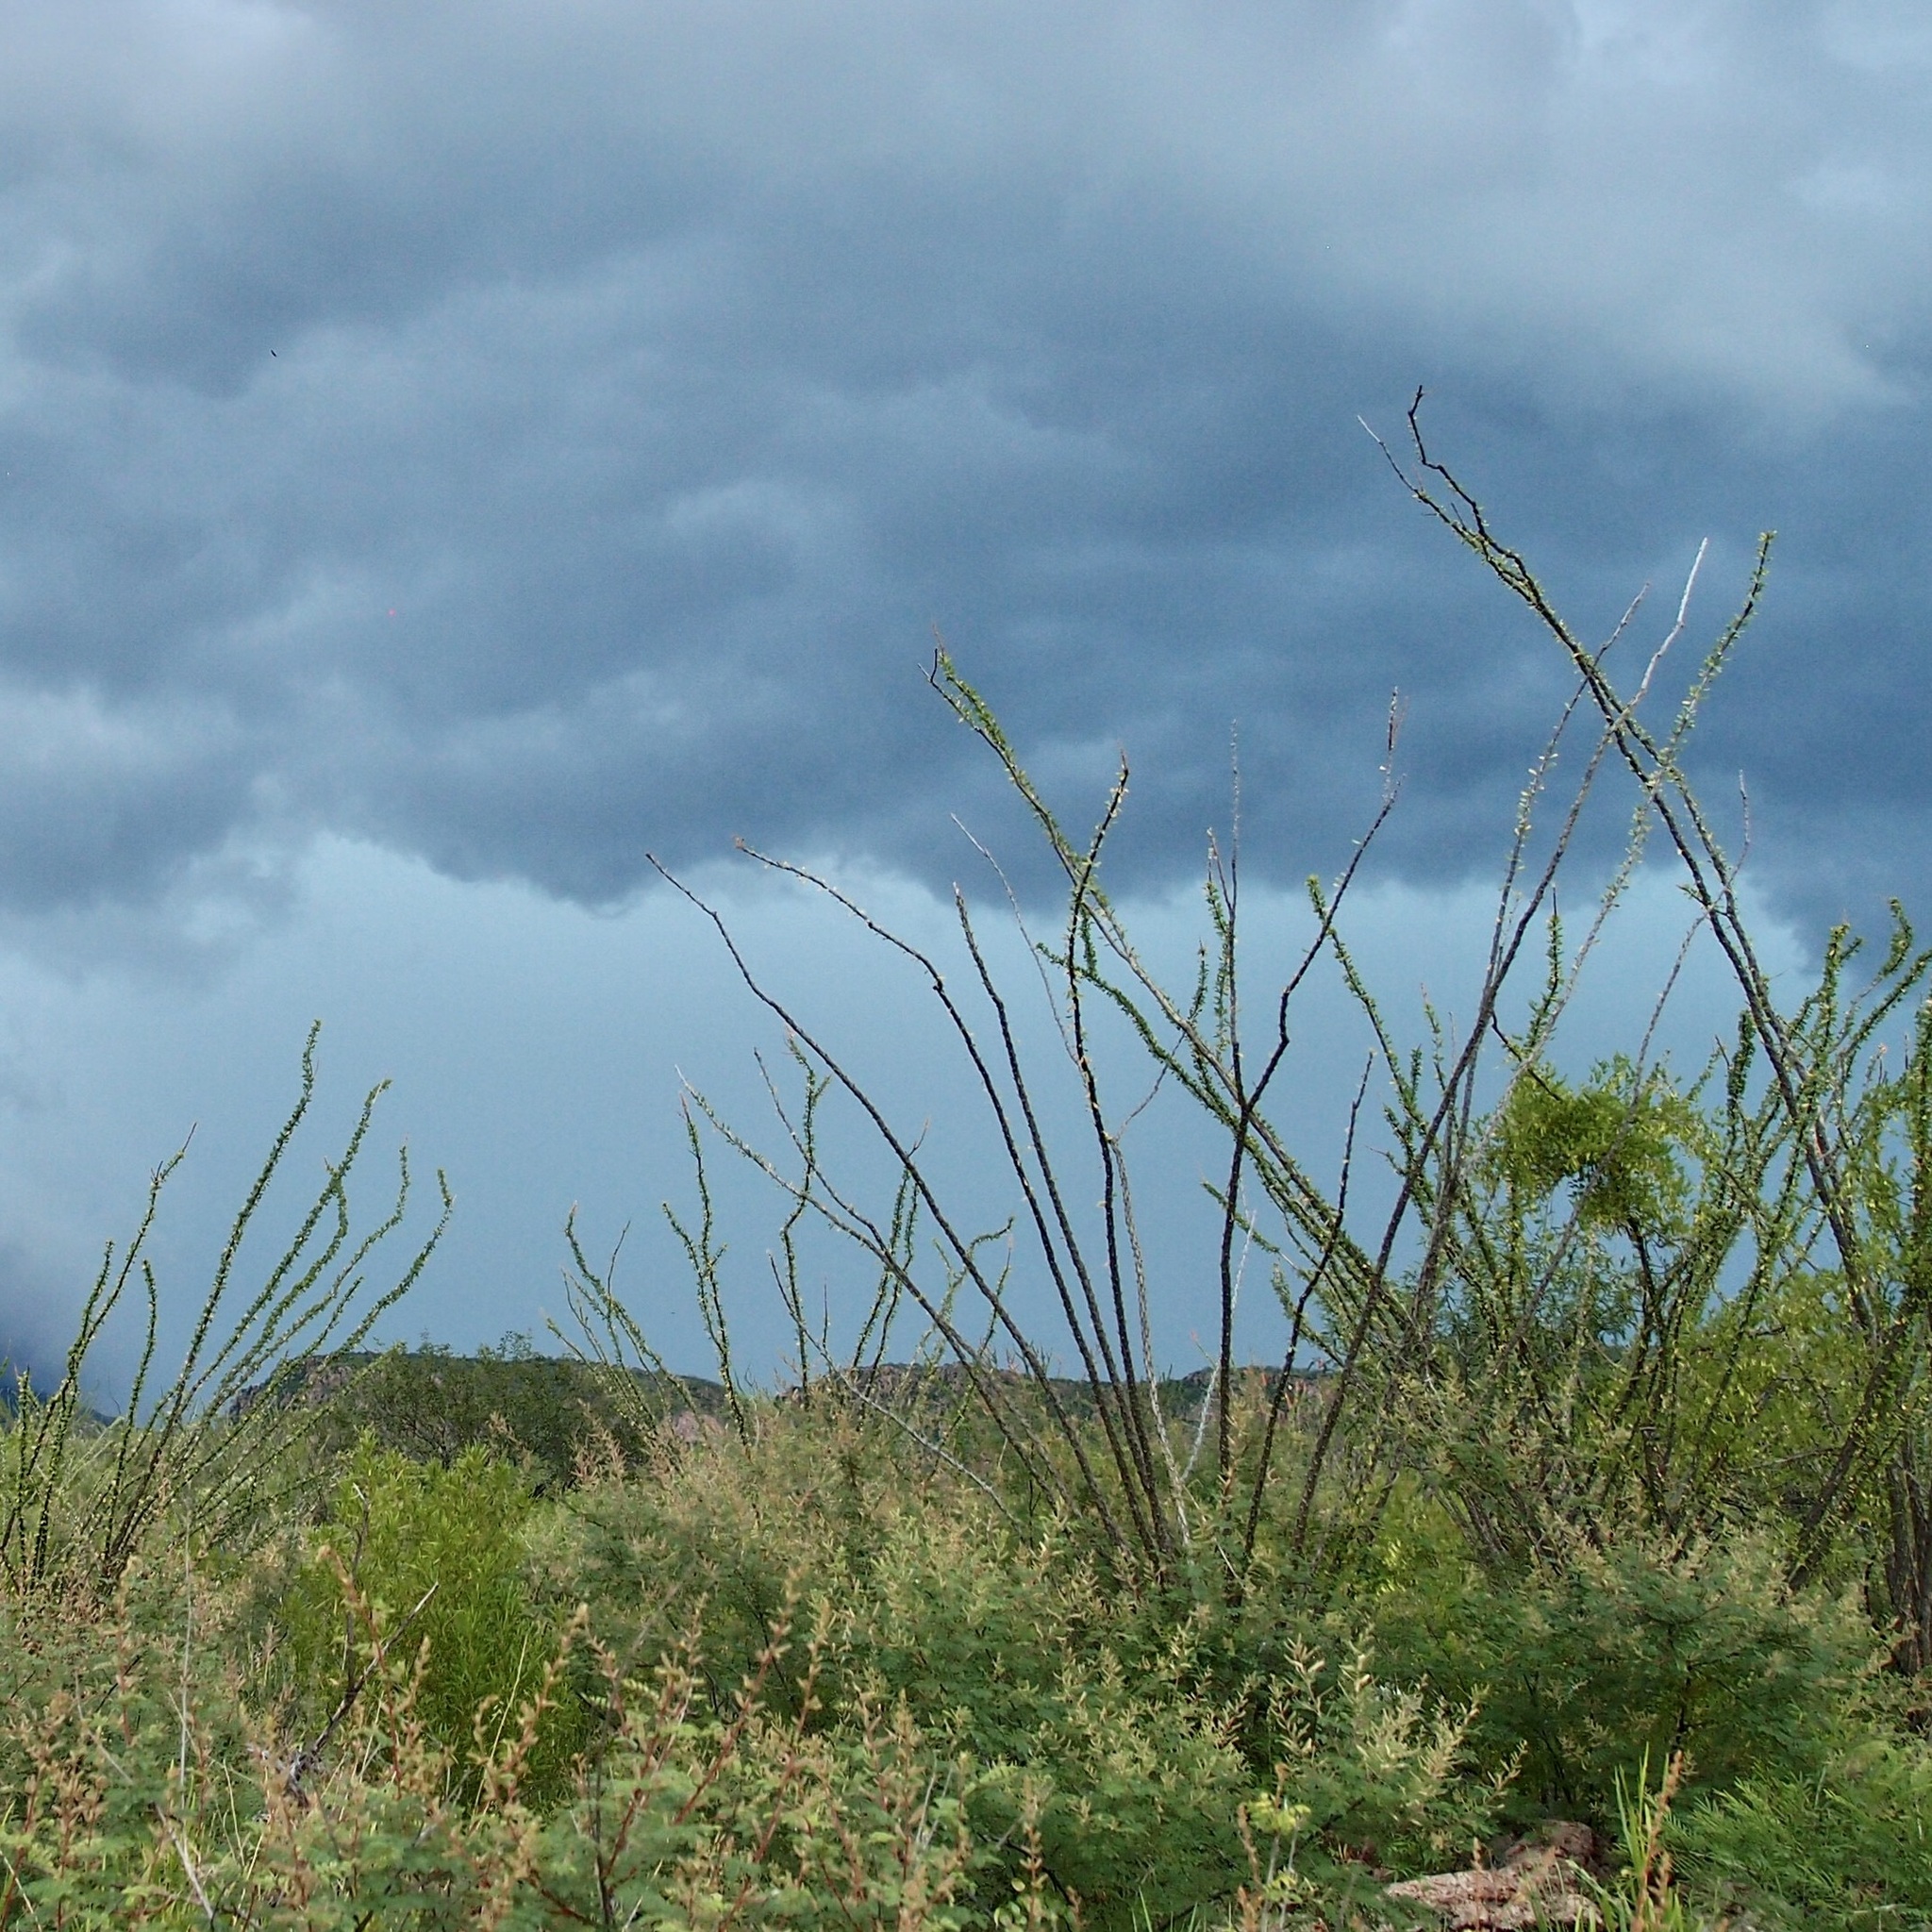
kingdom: Plantae
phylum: Tracheophyta
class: Magnoliopsida
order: Ericales
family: Fouquieriaceae
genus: Fouquieria
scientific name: Fouquieria splendens
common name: Vine-cactus
